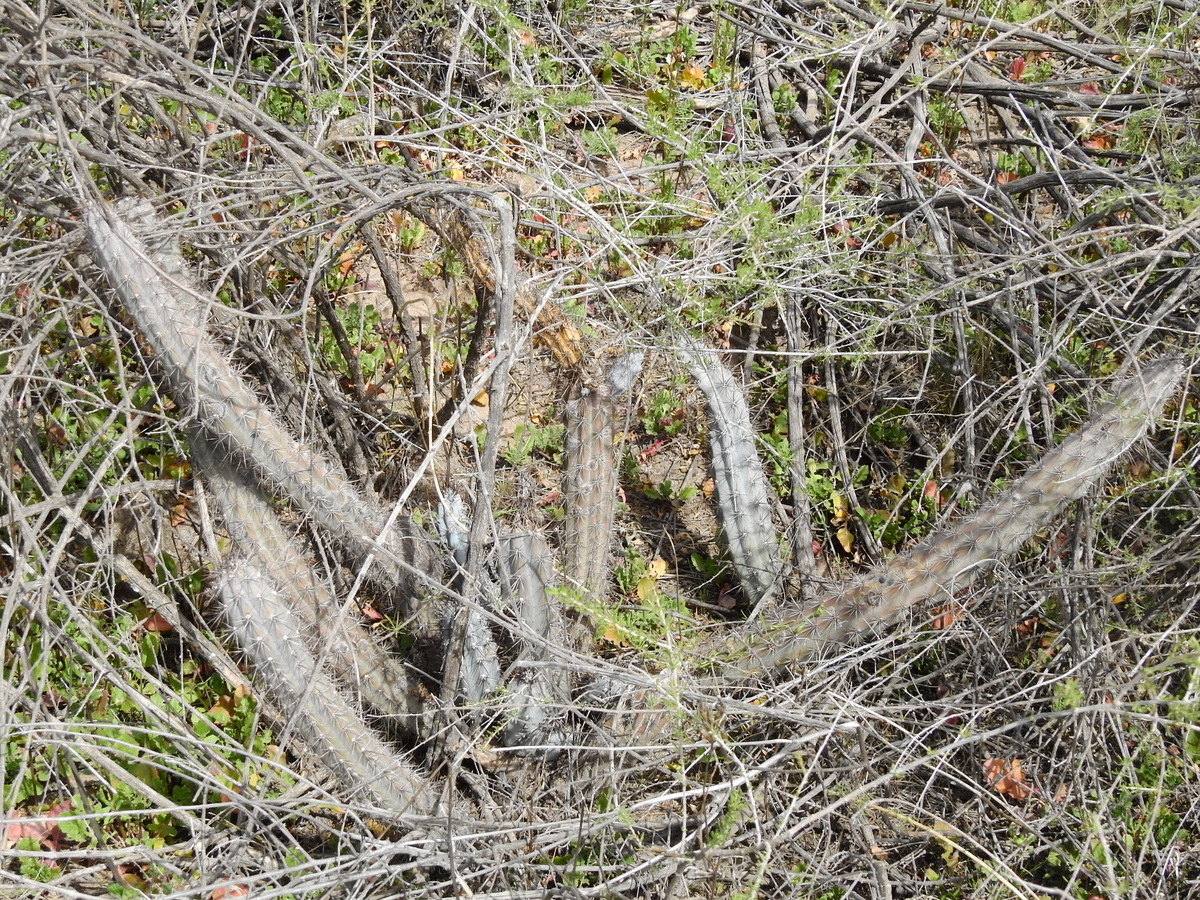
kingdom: Plantae
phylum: Tracheophyta
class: Magnoliopsida
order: Caryophyllales
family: Cactaceae
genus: Cereus
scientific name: Cereus aethiops
